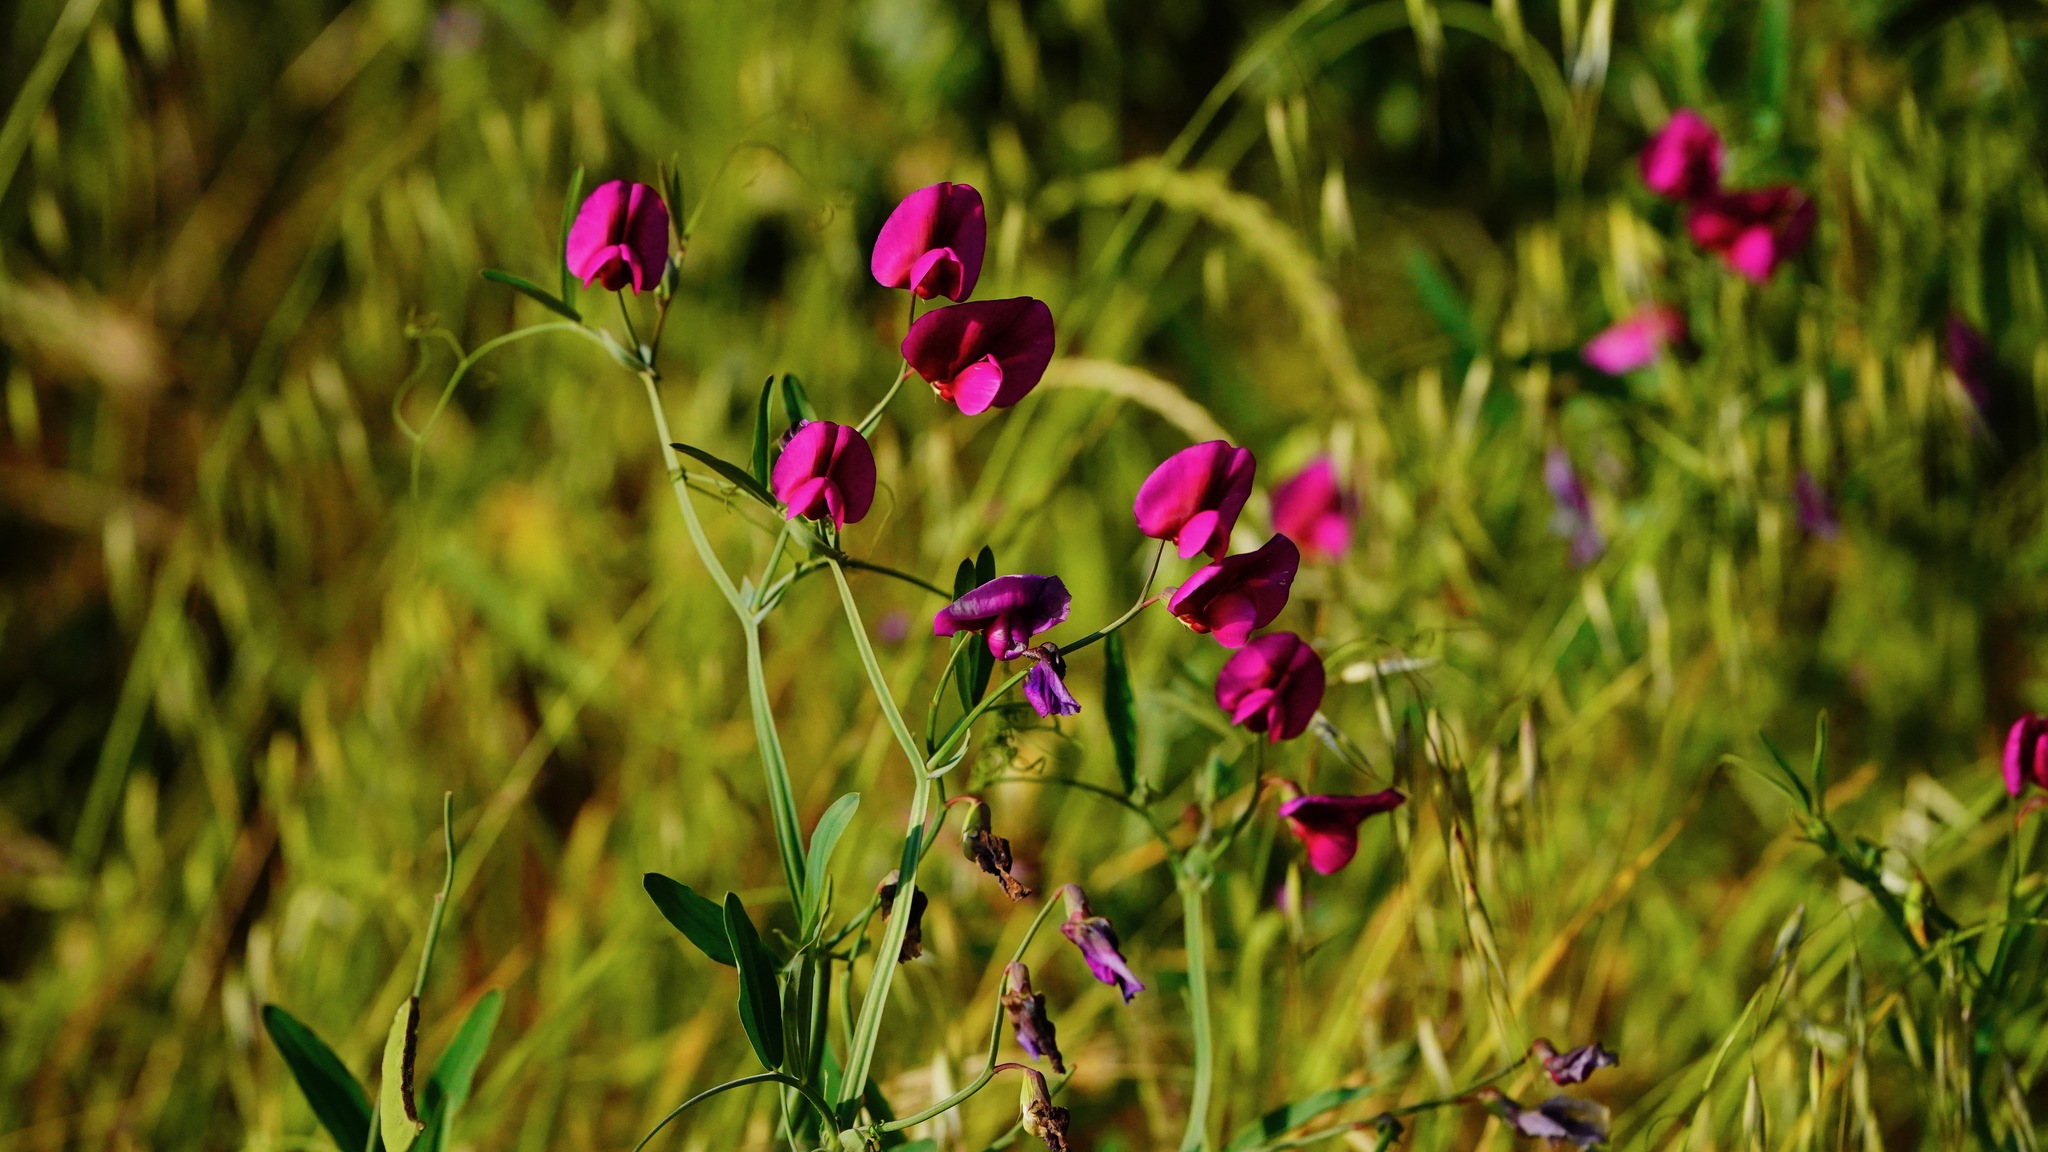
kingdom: Plantae
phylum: Tracheophyta
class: Magnoliopsida
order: Fabales
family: Fabaceae
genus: Lathyrus
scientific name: Lathyrus tingitanus
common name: Tangier pea
